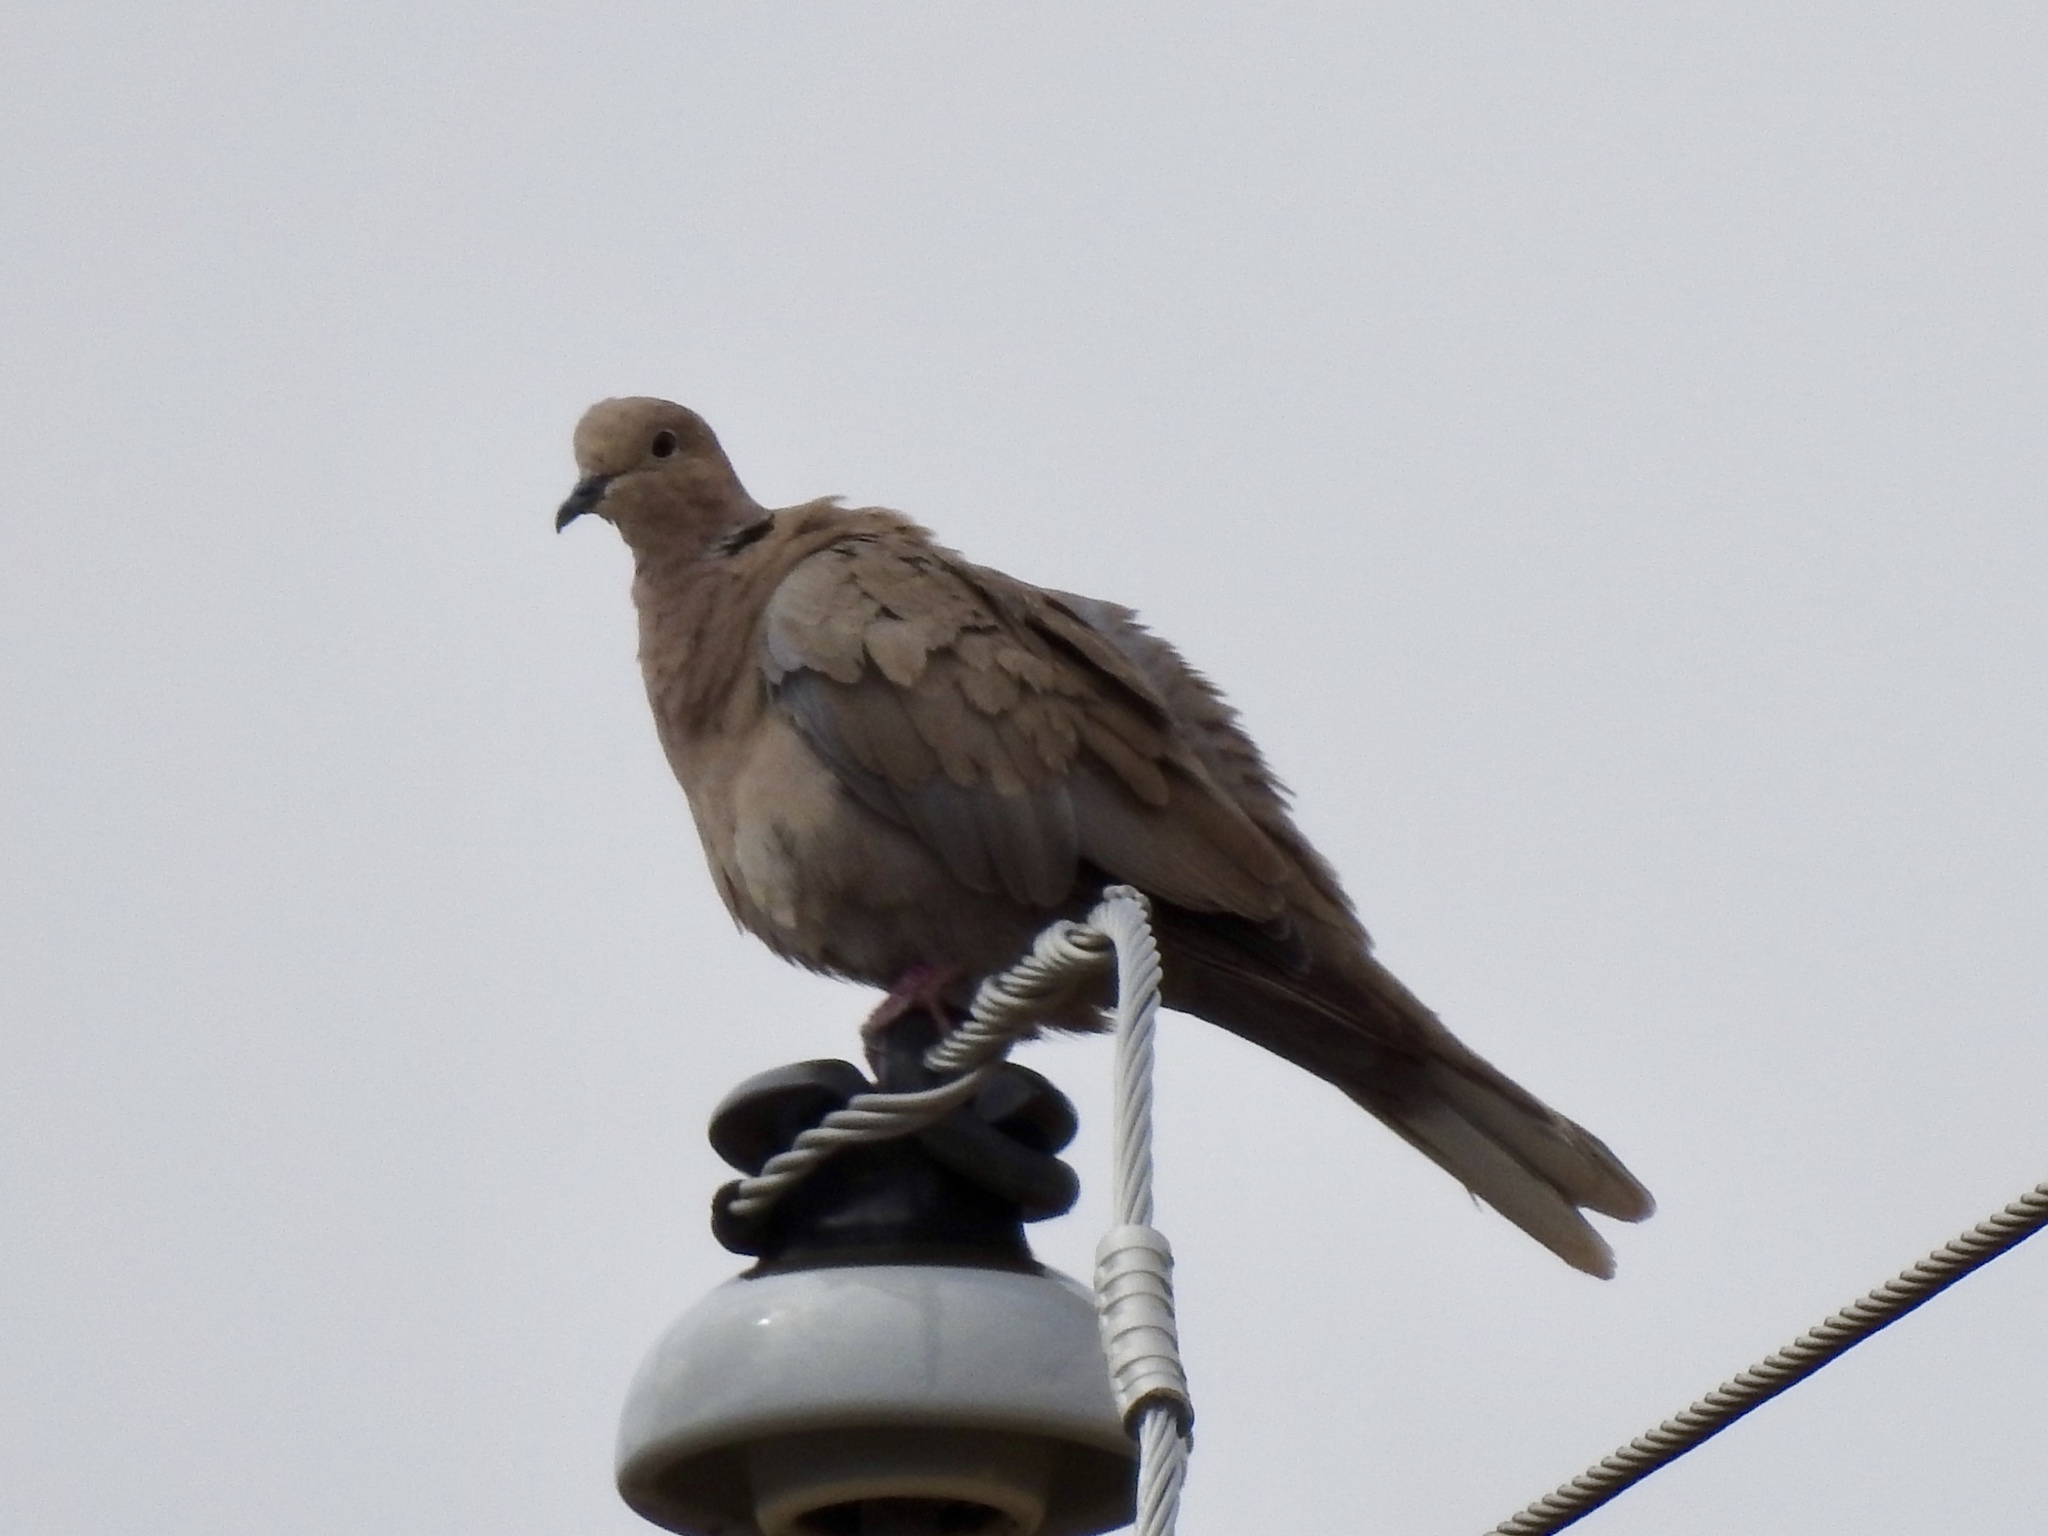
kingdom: Animalia
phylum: Chordata
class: Aves
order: Columbiformes
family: Columbidae
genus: Streptopelia
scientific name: Streptopelia decaocto
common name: Eurasian collared dove
